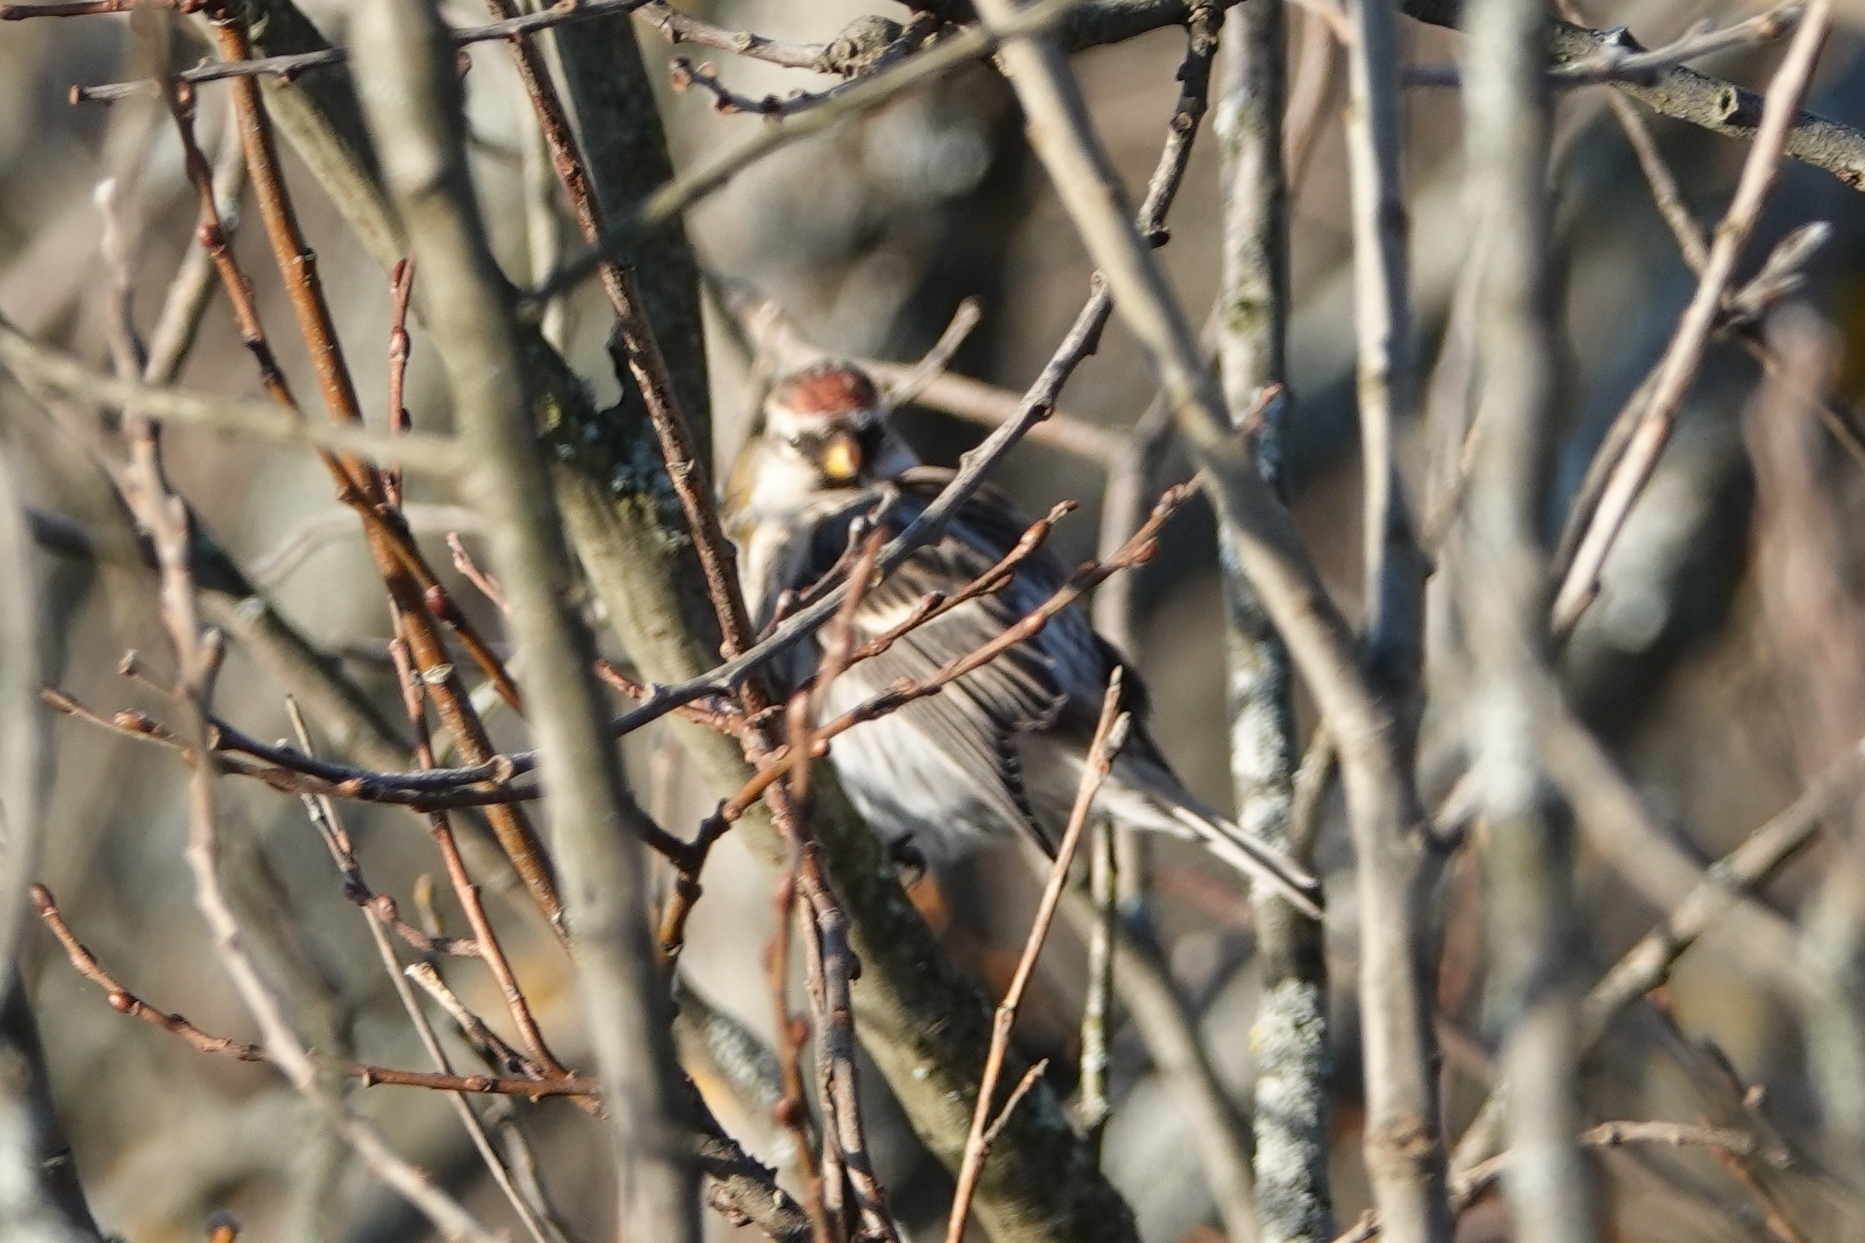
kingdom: Animalia
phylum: Chordata
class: Aves
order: Passeriformes
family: Fringillidae
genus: Acanthis
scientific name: Acanthis flammea
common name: Common redpoll
